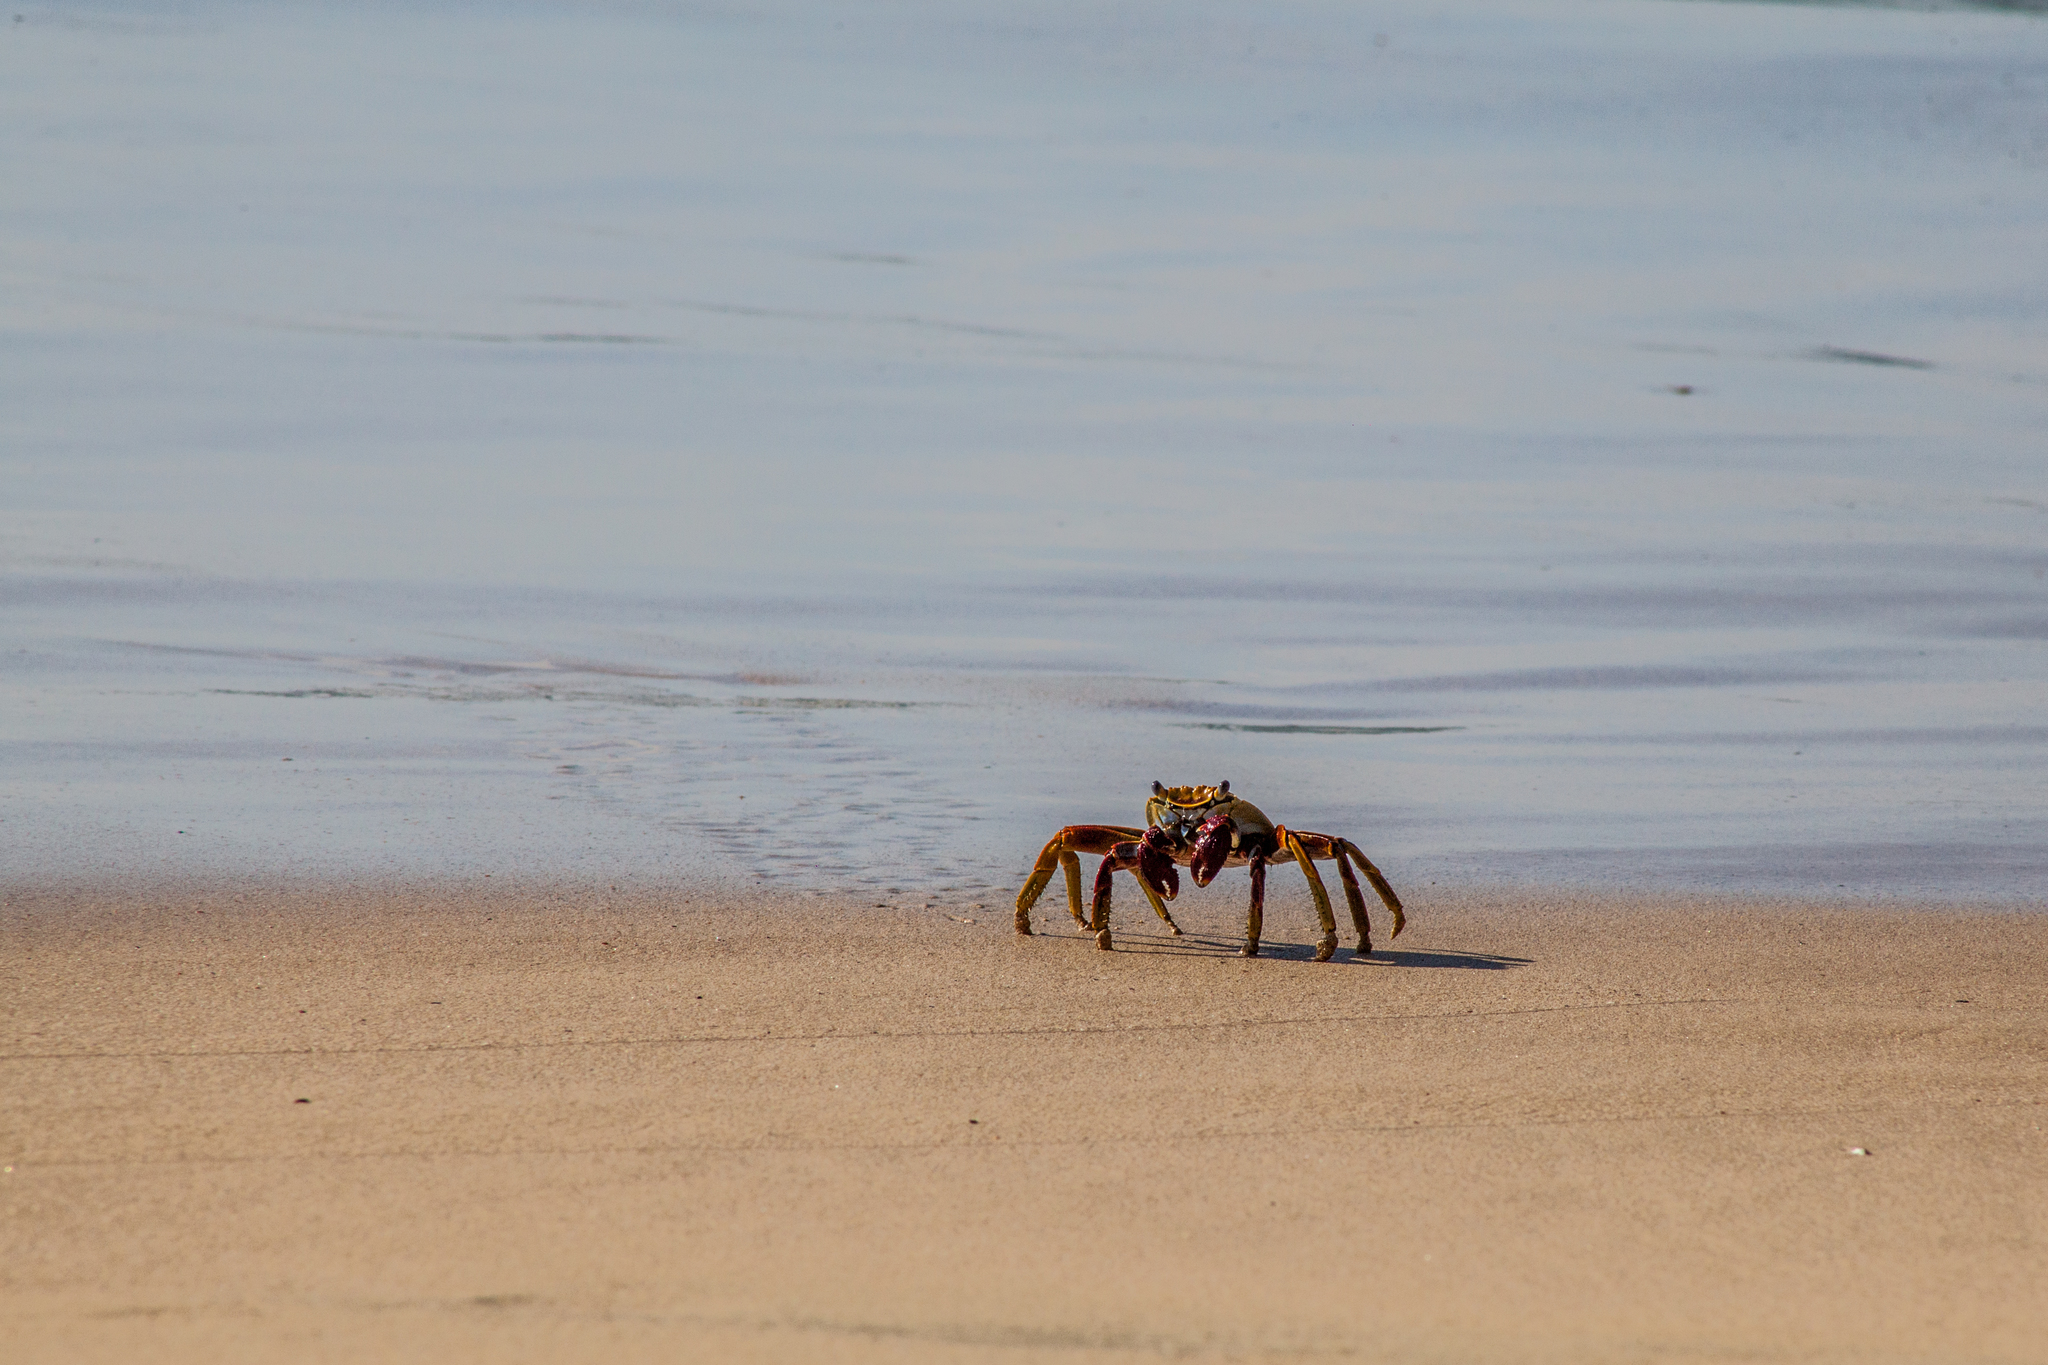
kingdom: Animalia
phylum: Arthropoda
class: Malacostraca
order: Decapoda
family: Grapsidae
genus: Grapsus
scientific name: Grapsus grapsus
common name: Sally lightfoot
